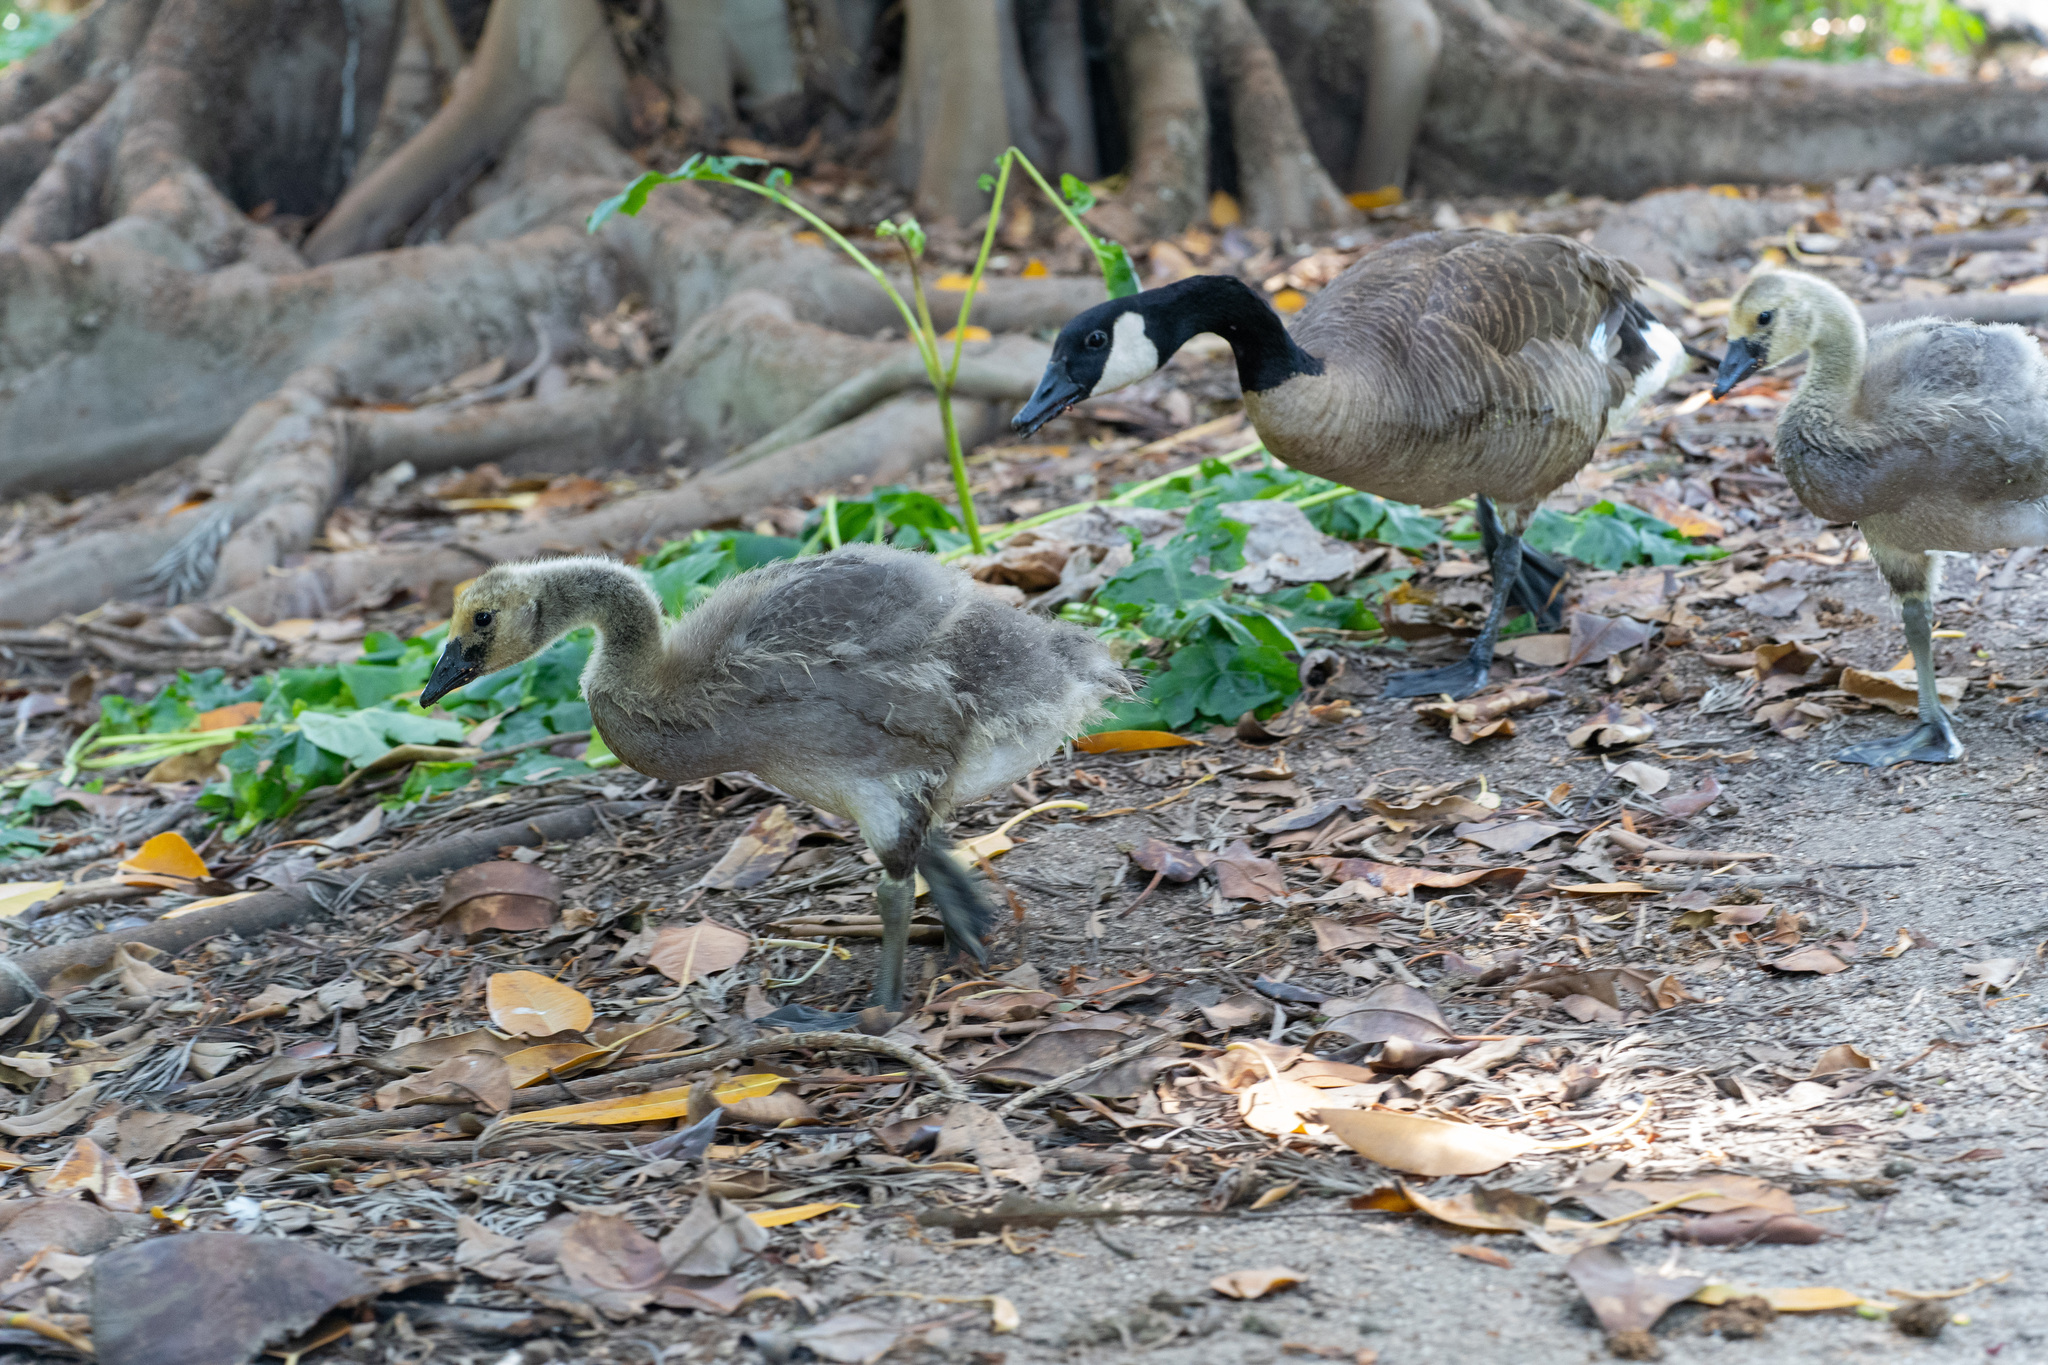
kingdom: Animalia
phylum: Chordata
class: Aves
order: Anseriformes
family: Anatidae
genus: Branta
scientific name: Branta canadensis
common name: Canada goose
